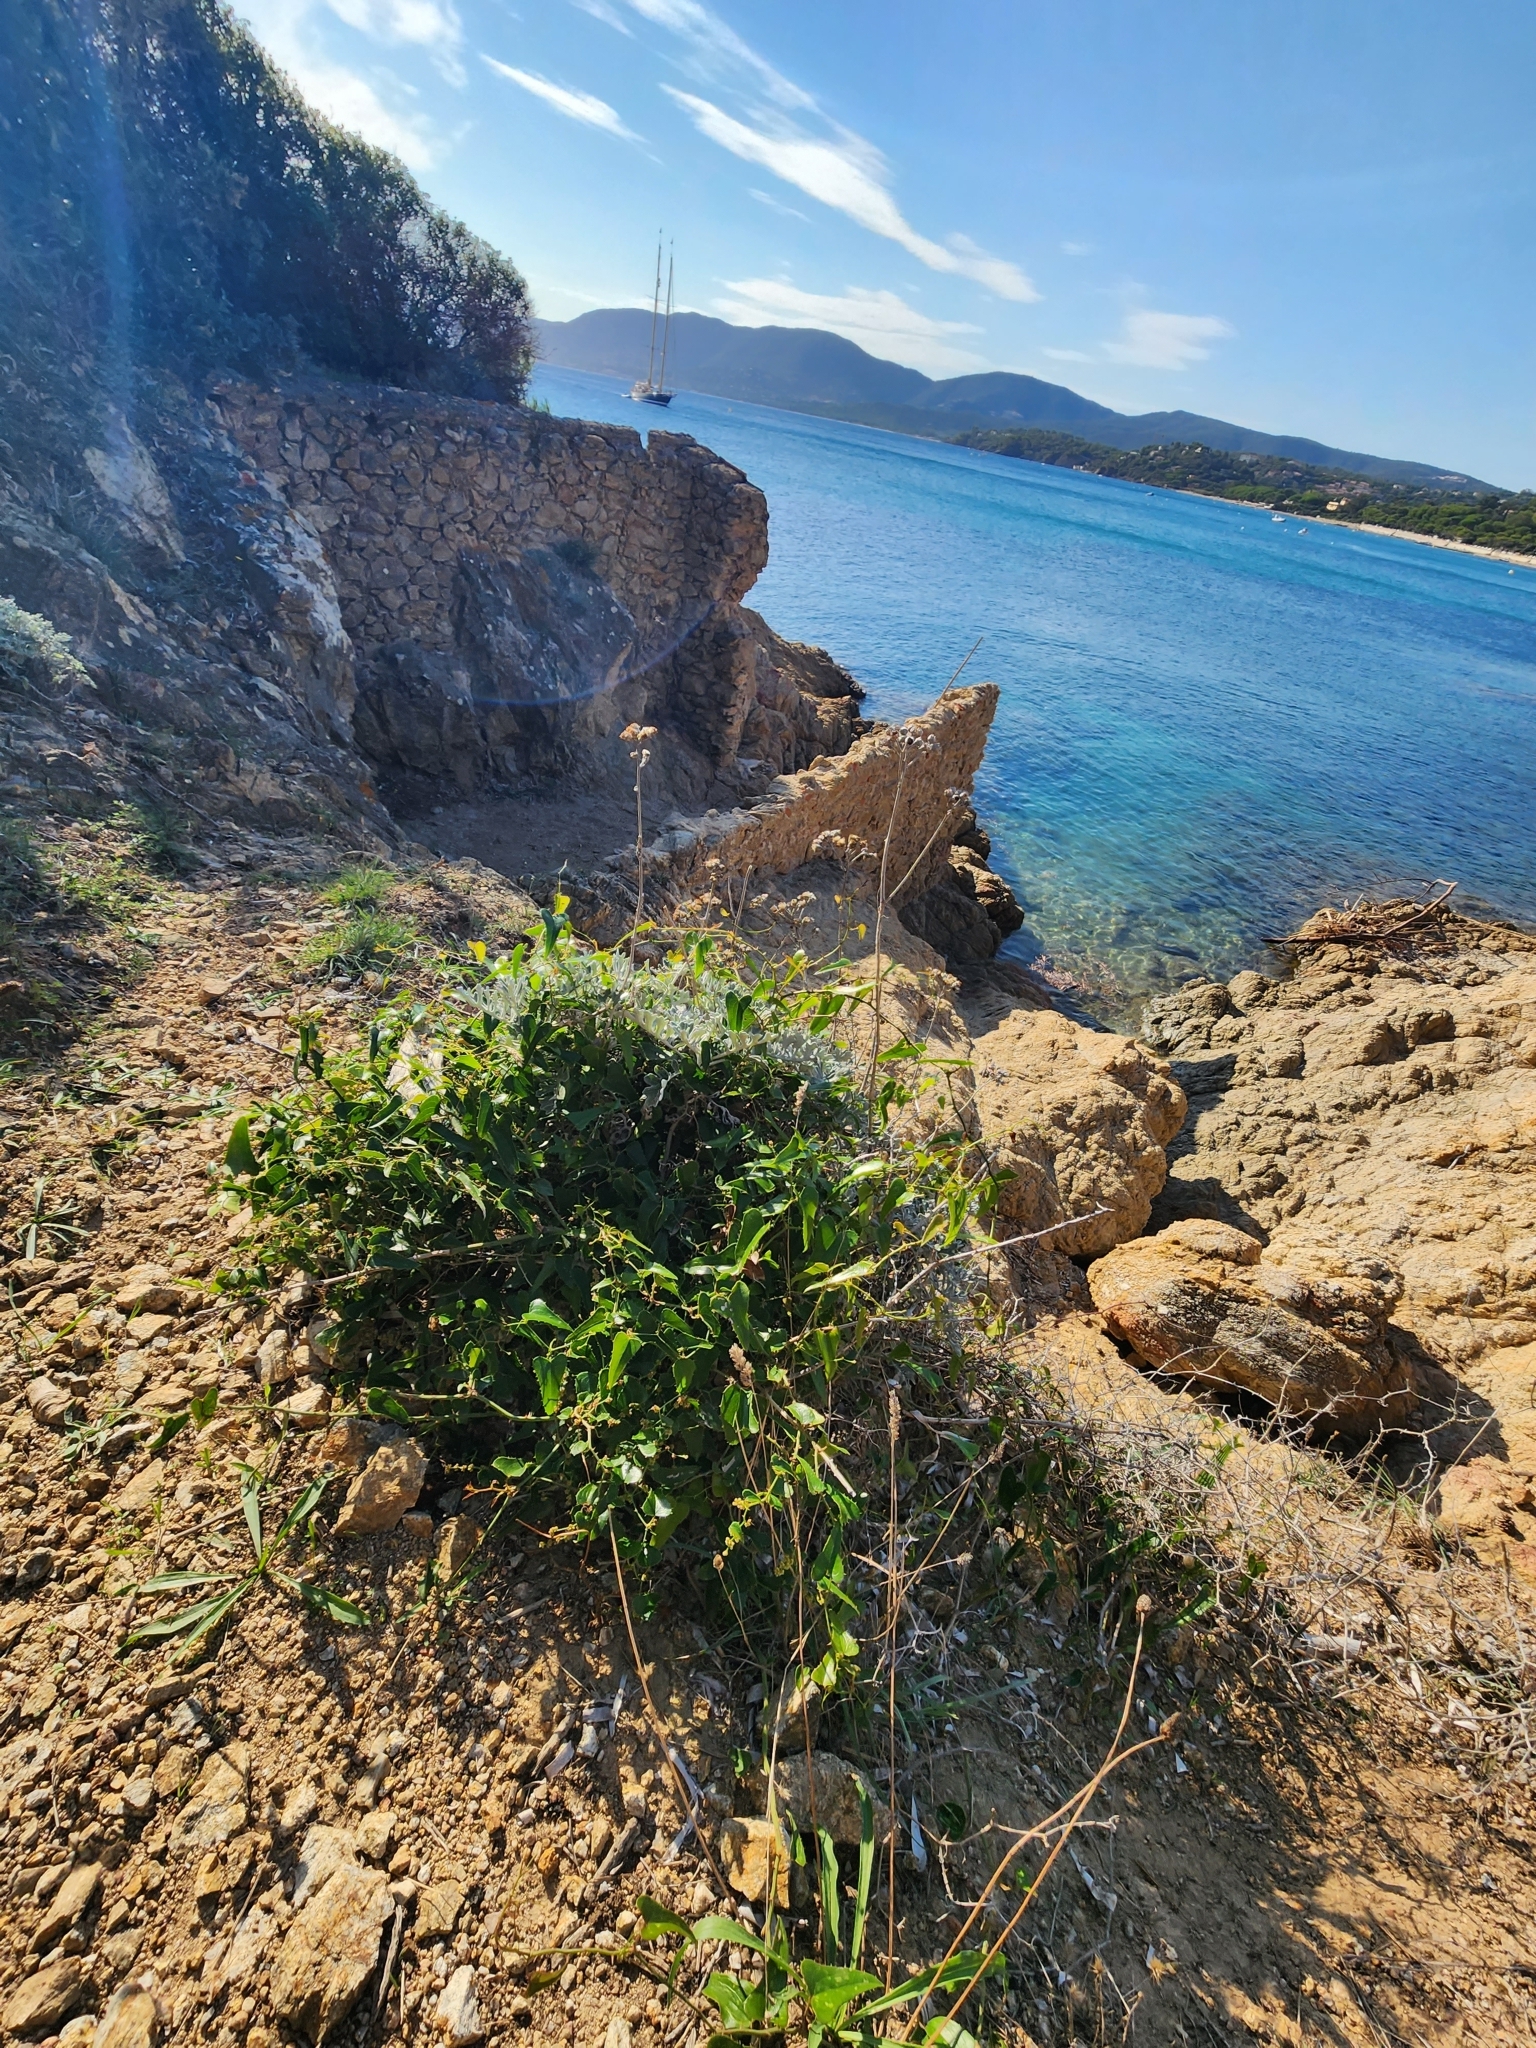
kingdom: Plantae
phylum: Tracheophyta
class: Liliopsida
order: Liliales
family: Smilacaceae
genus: Smilax
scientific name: Smilax aspera
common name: Common smilax
